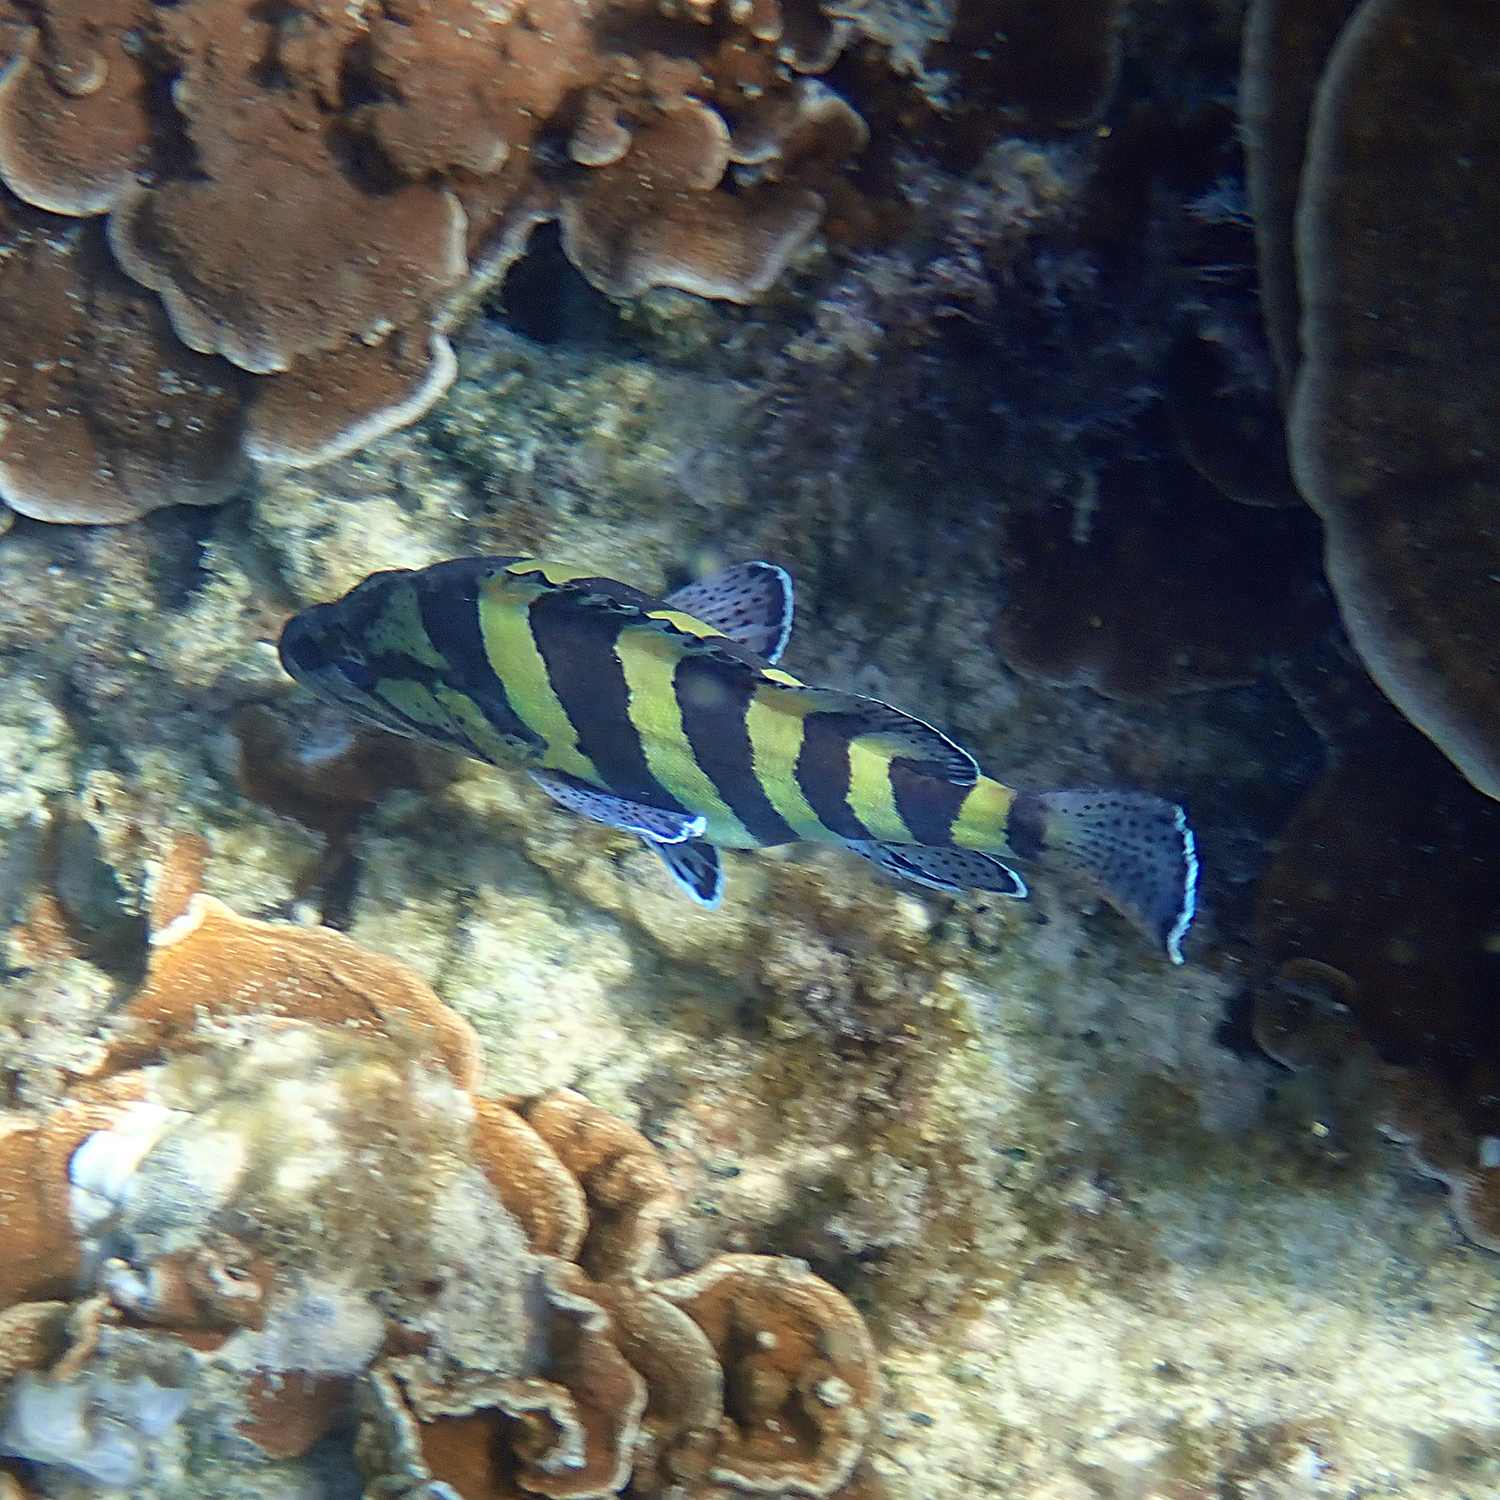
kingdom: Animalia
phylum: Chordata
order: Perciformes
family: Serranidae
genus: Acanthistius
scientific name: Acanthistius cinctus
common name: Girdled rock cod
